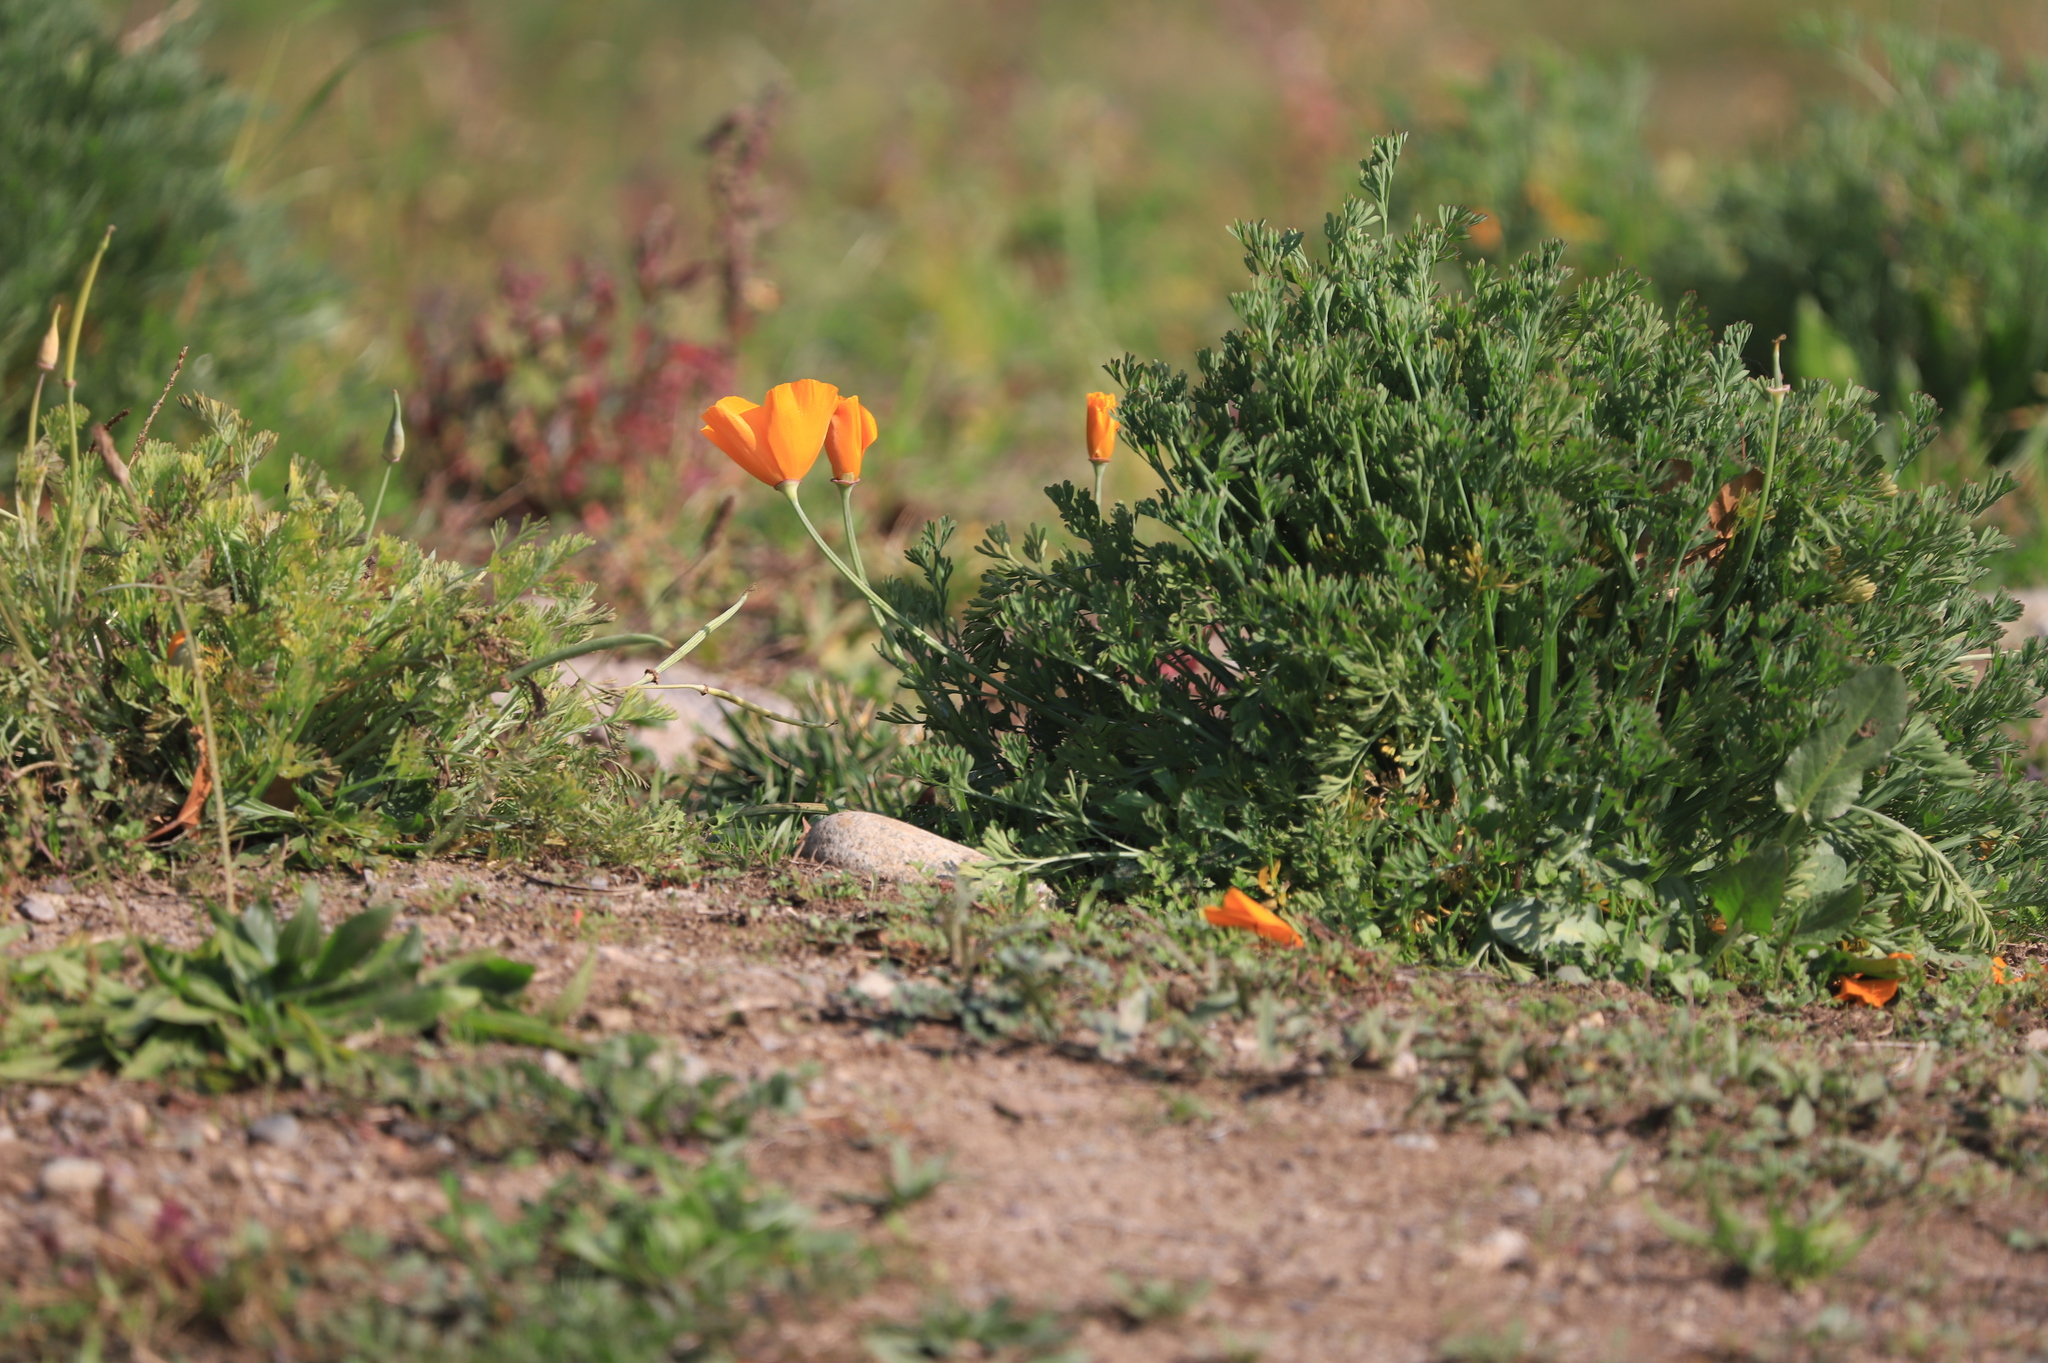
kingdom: Plantae
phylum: Tracheophyta
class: Magnoliopsida
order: Ranunculales
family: Papaveraceae
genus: Eschscholzia
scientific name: Eschscholzia californica
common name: California poppy
